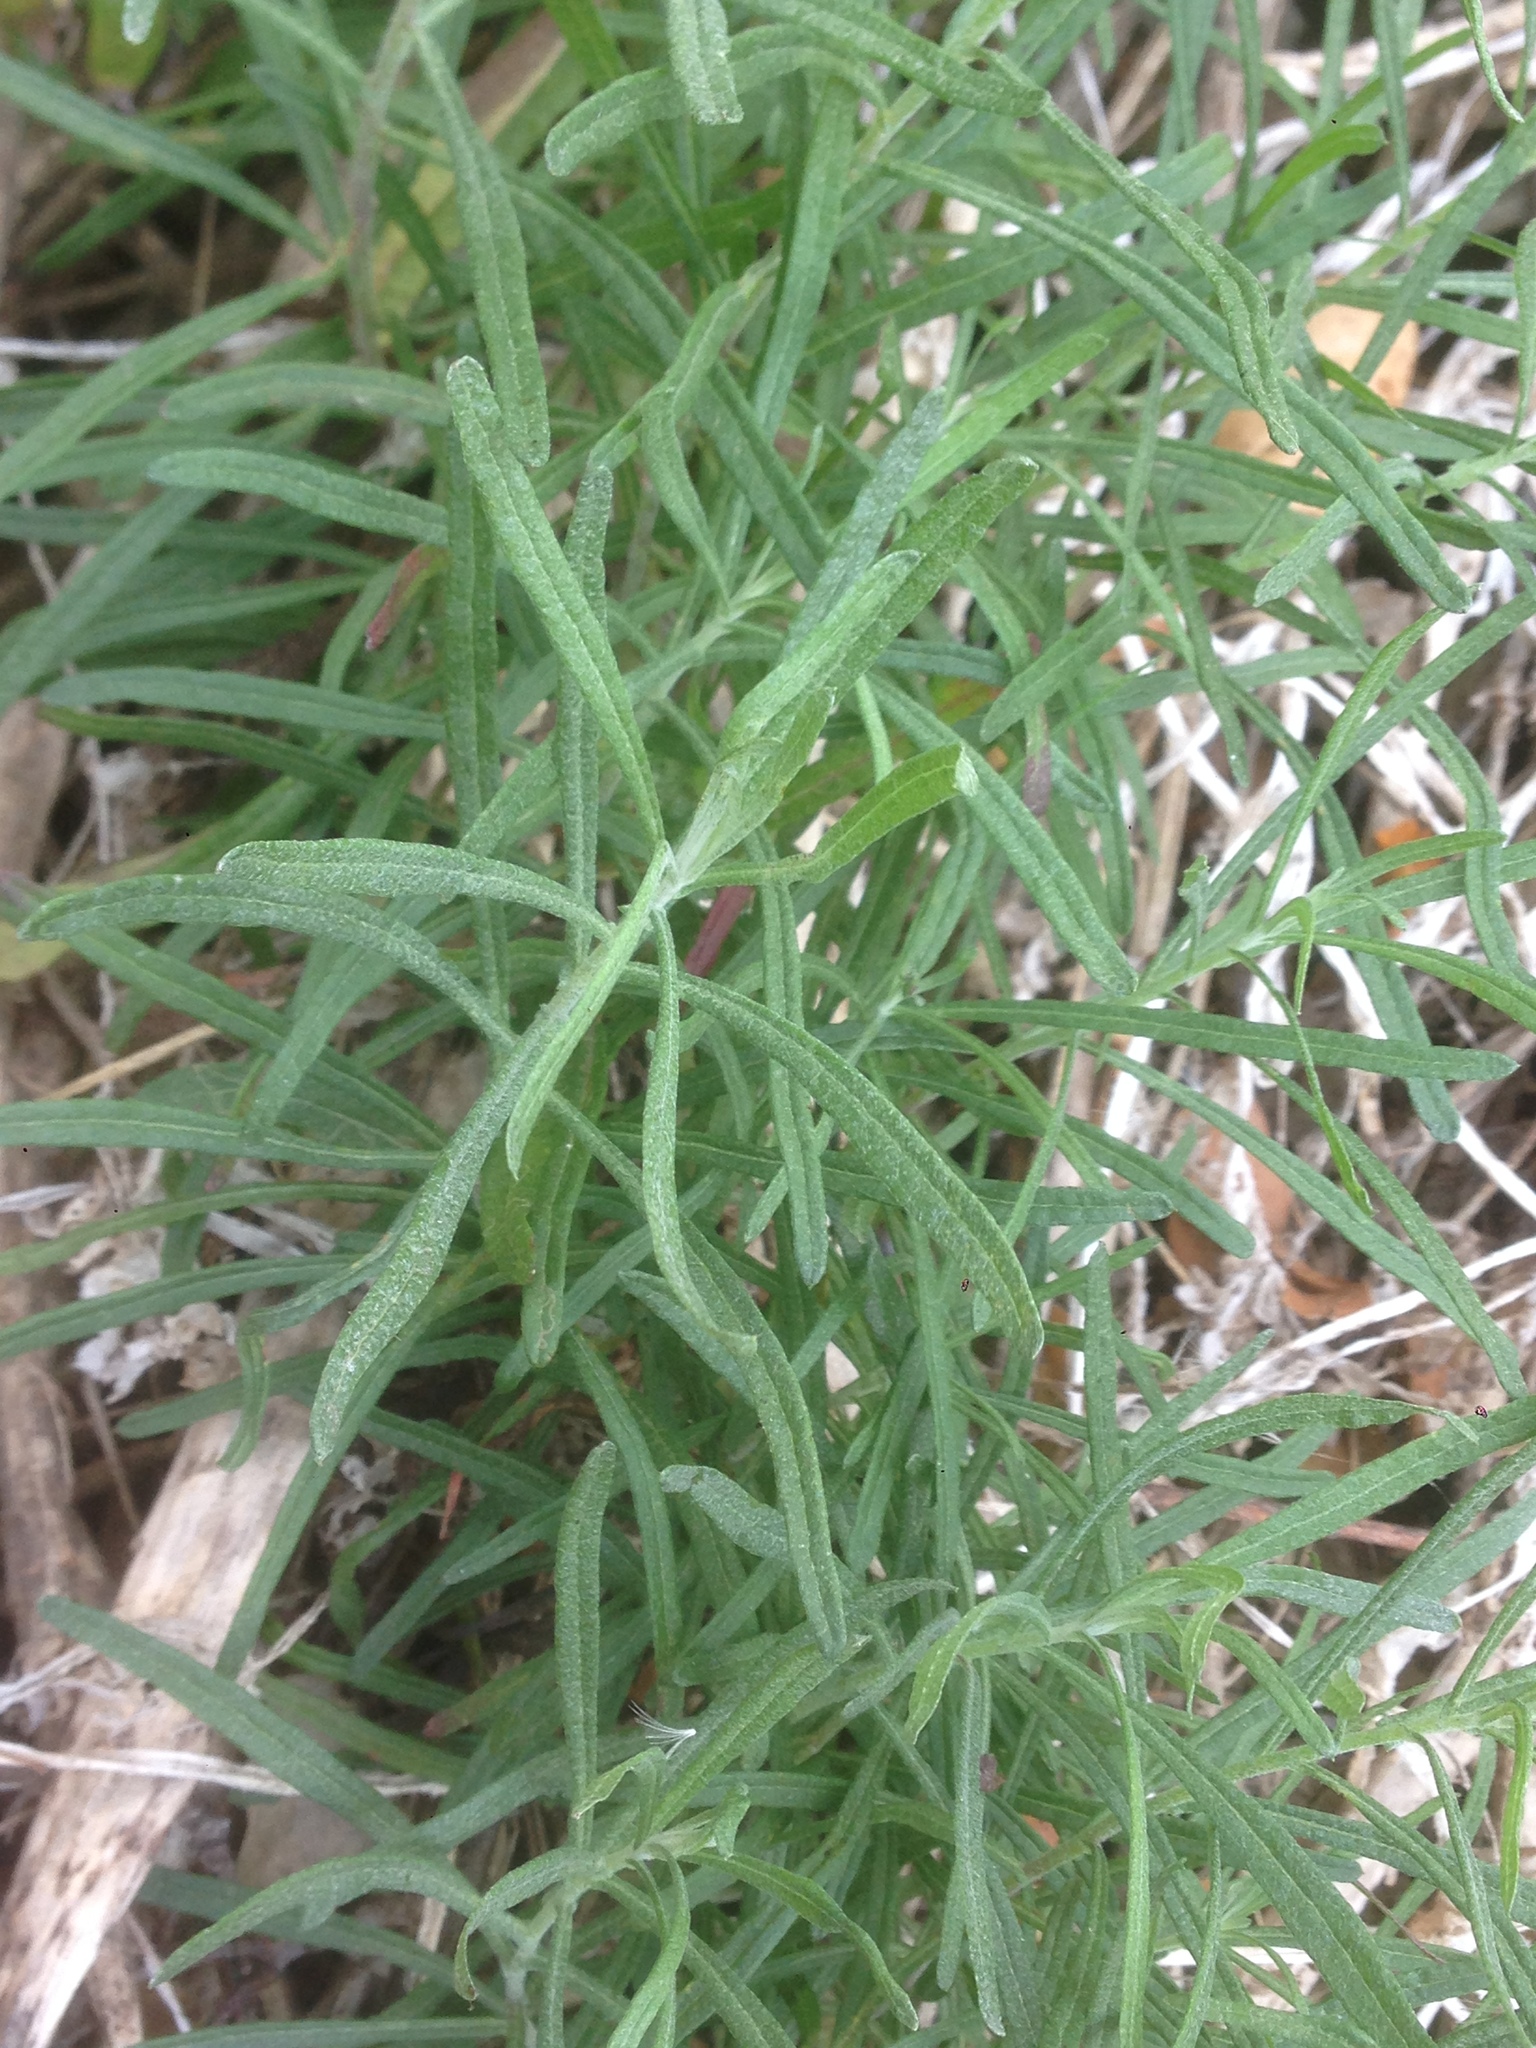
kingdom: Plantae
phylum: Tracheophyta
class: Magnoliopsida
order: Asterales
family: Asteraceae
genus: Malacothrix
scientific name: Malacothrix saxatilis
